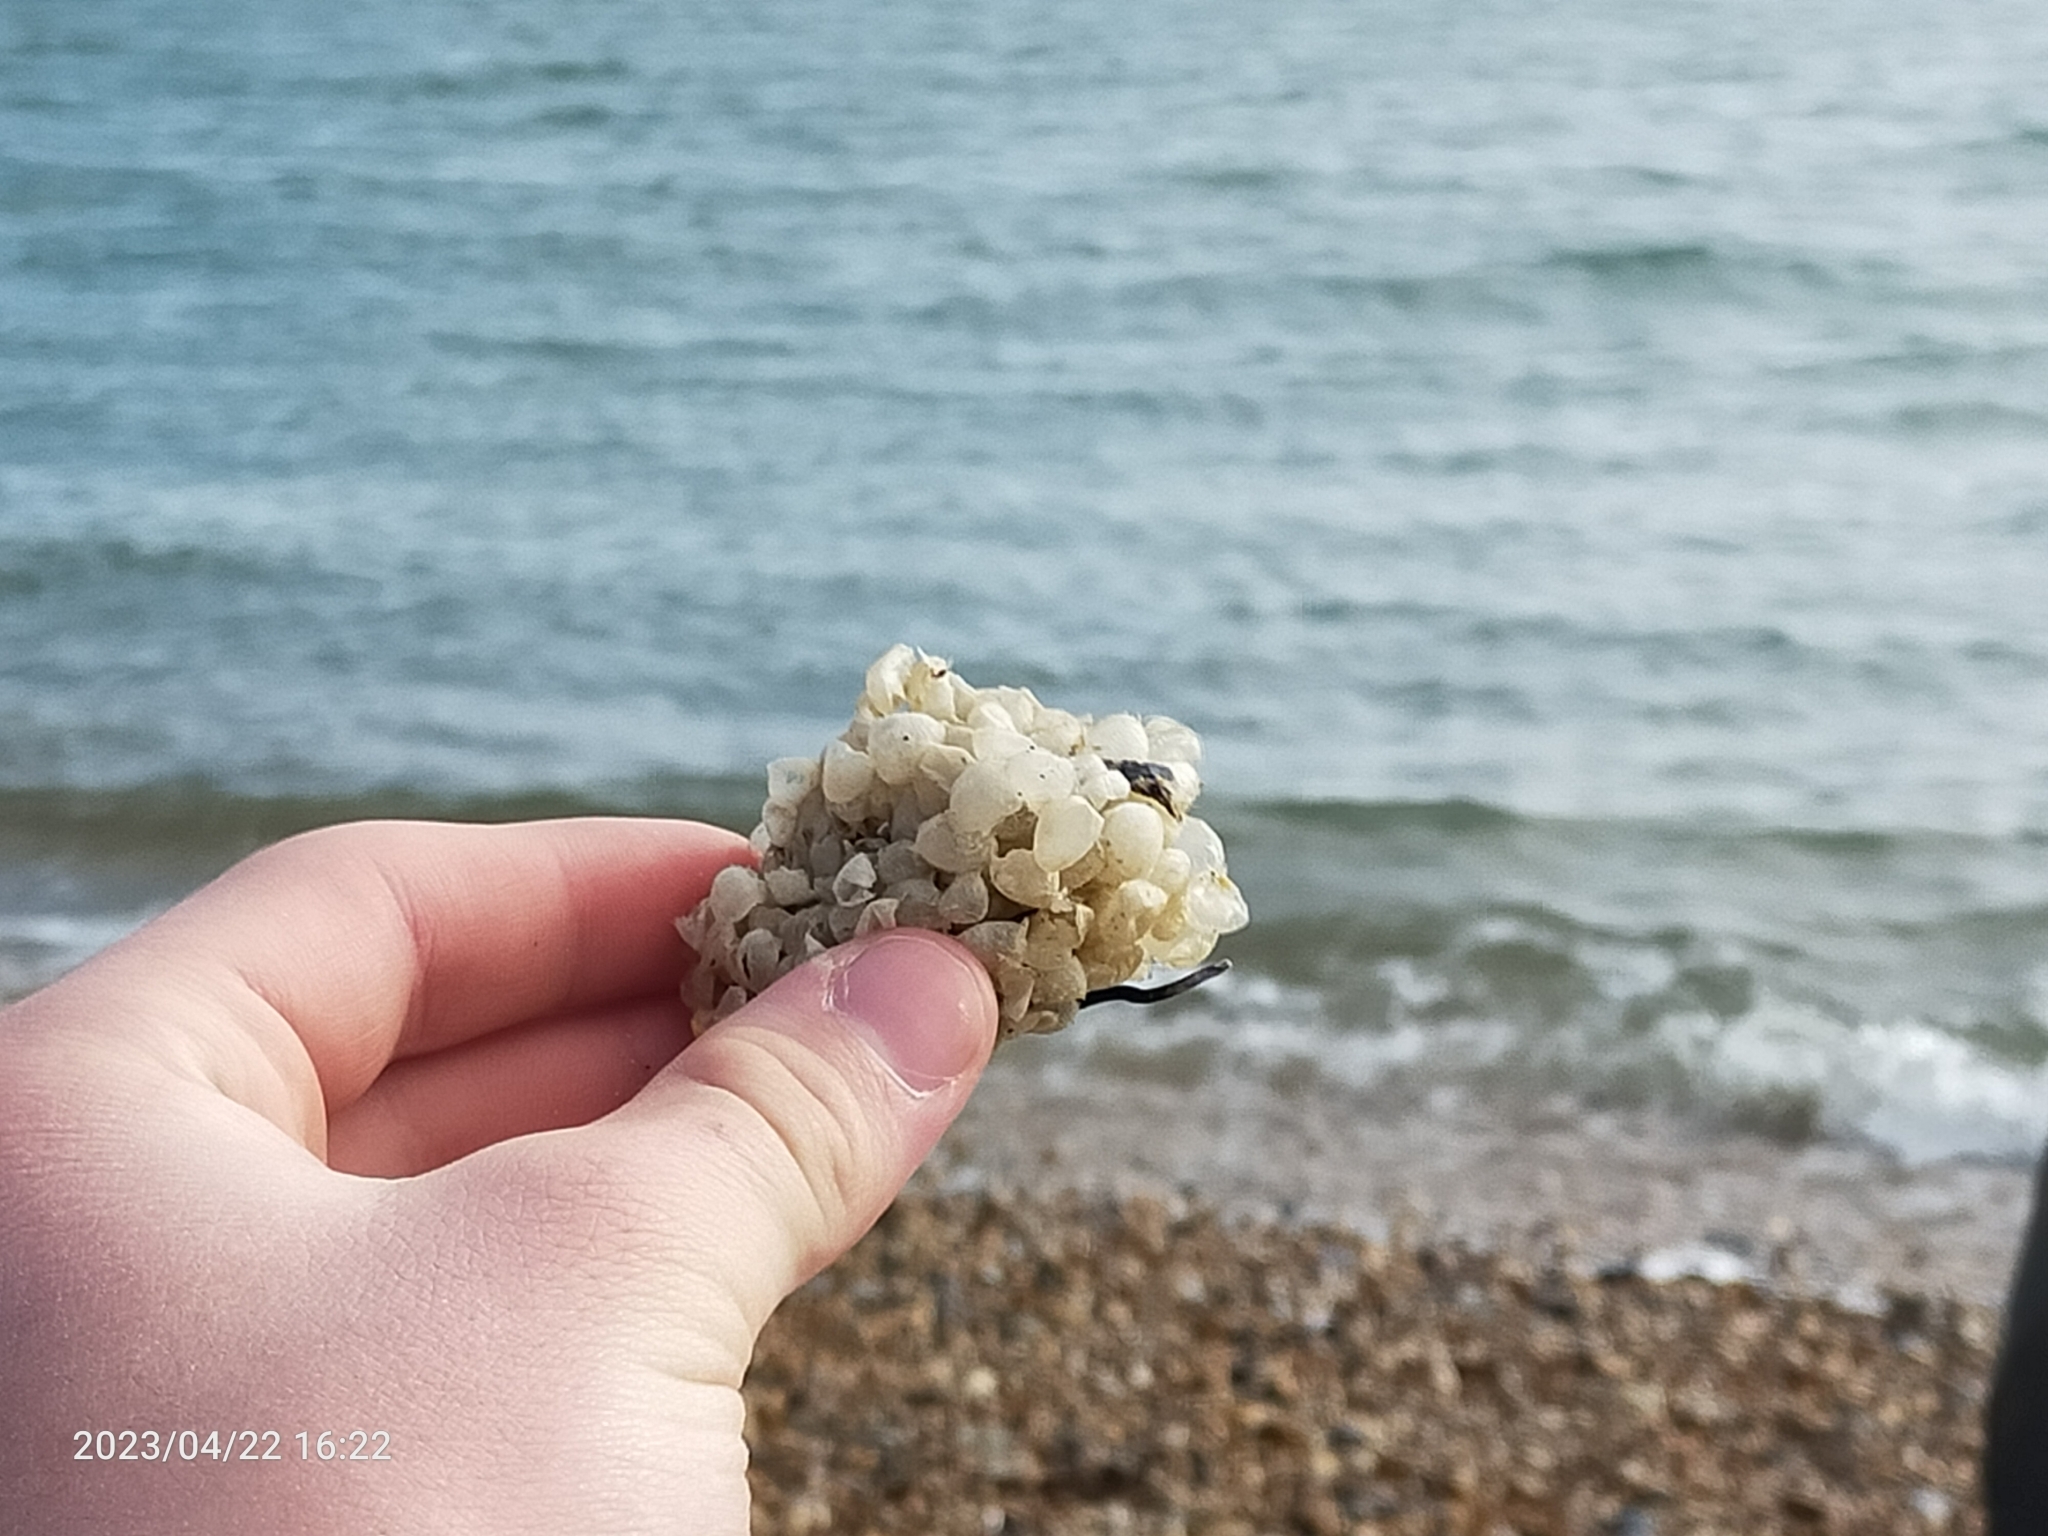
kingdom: Animalia
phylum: Mollusca
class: Gastropoda
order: Neogastropoda
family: Buccinidae
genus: Buccinum
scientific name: Buccinum undatum
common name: Common whelk
